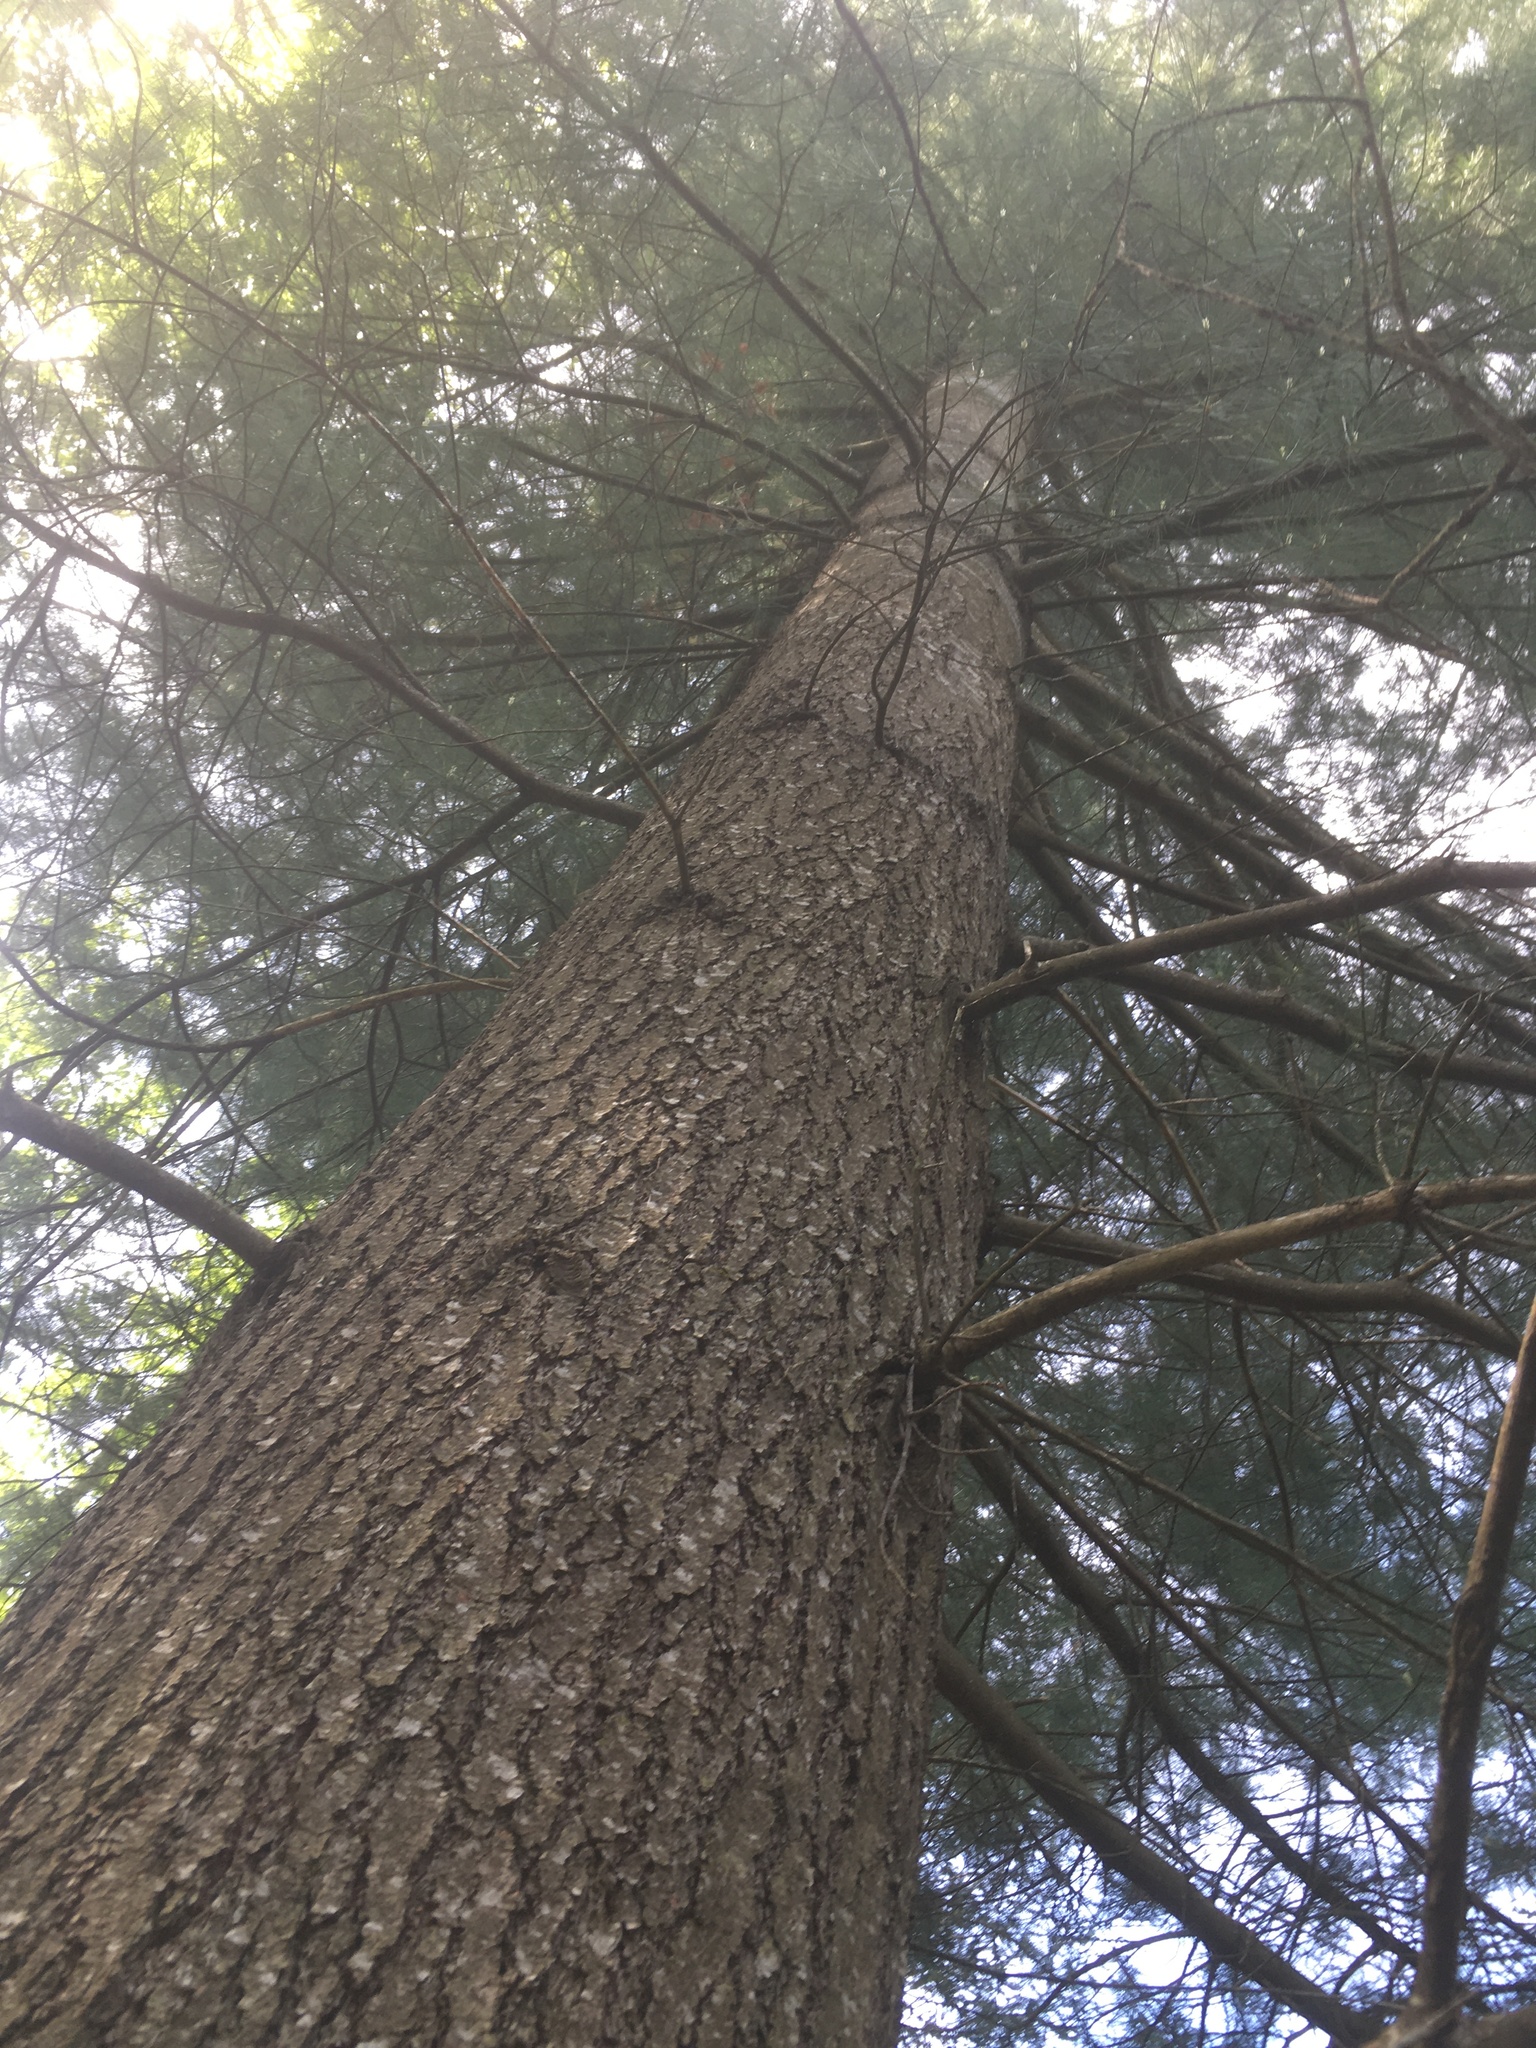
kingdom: Plantae
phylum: Tracheophyta
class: Pinopsida
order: Pinales
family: Pinaceae
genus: Pinus
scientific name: Pinus strobus
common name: Weymouth pine
